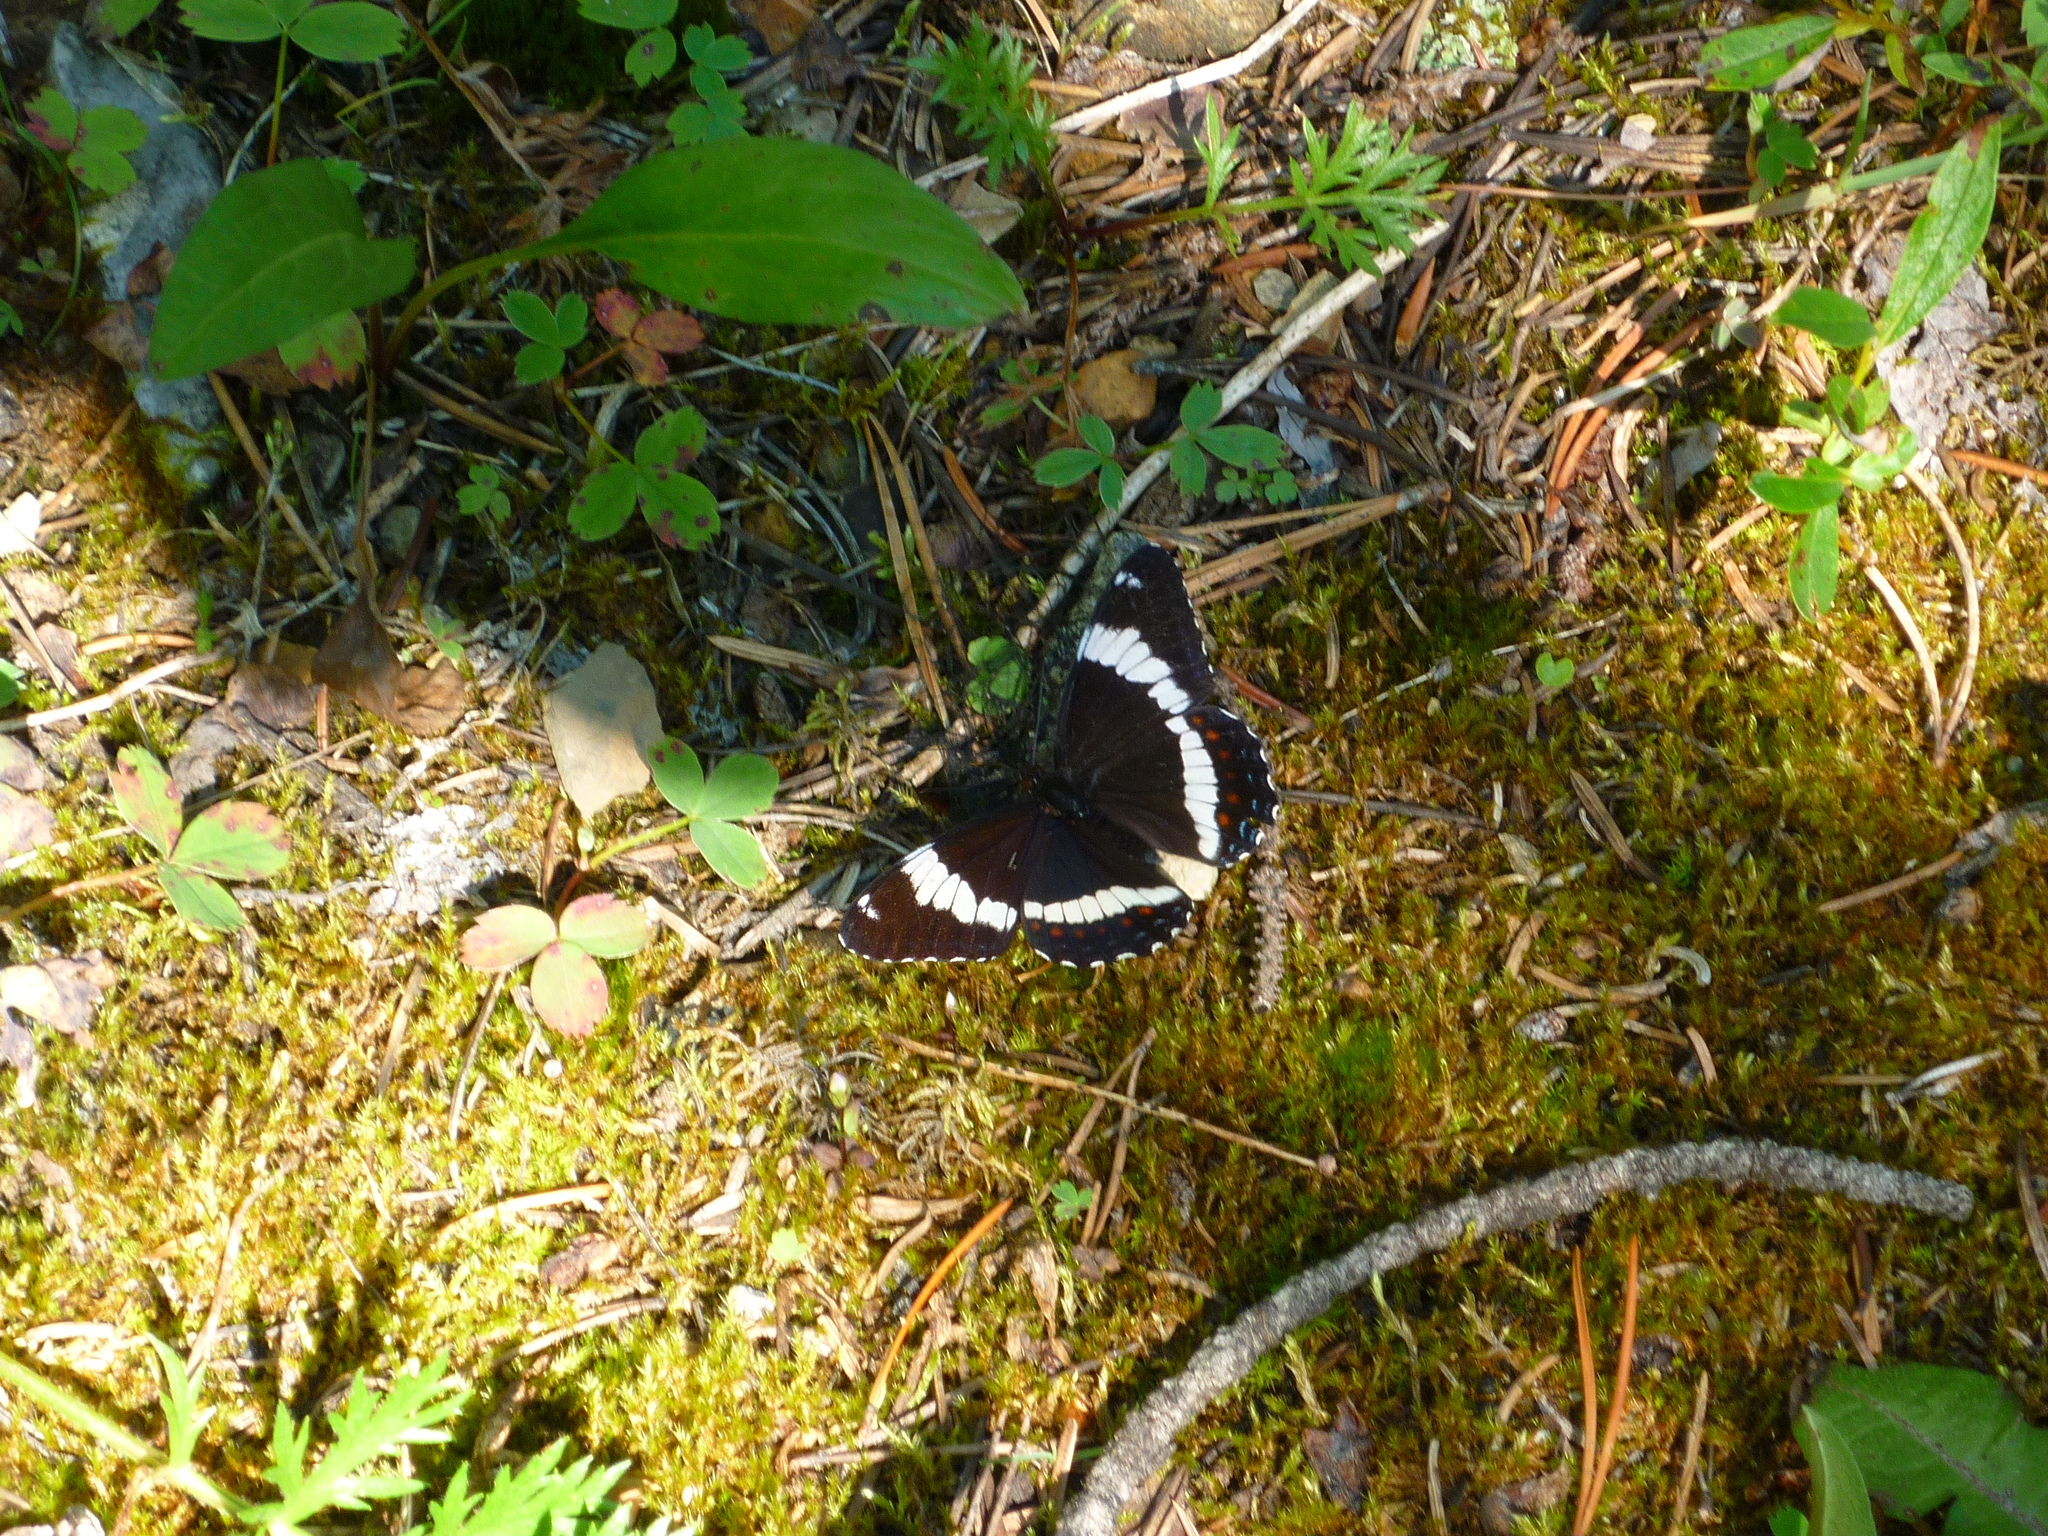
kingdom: Animalia
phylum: Arthropoda
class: Insecta
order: Lepidoptera
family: Nymphalidae
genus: Limenitis
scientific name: Limenitis arthemis
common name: Red-spotted admiral
